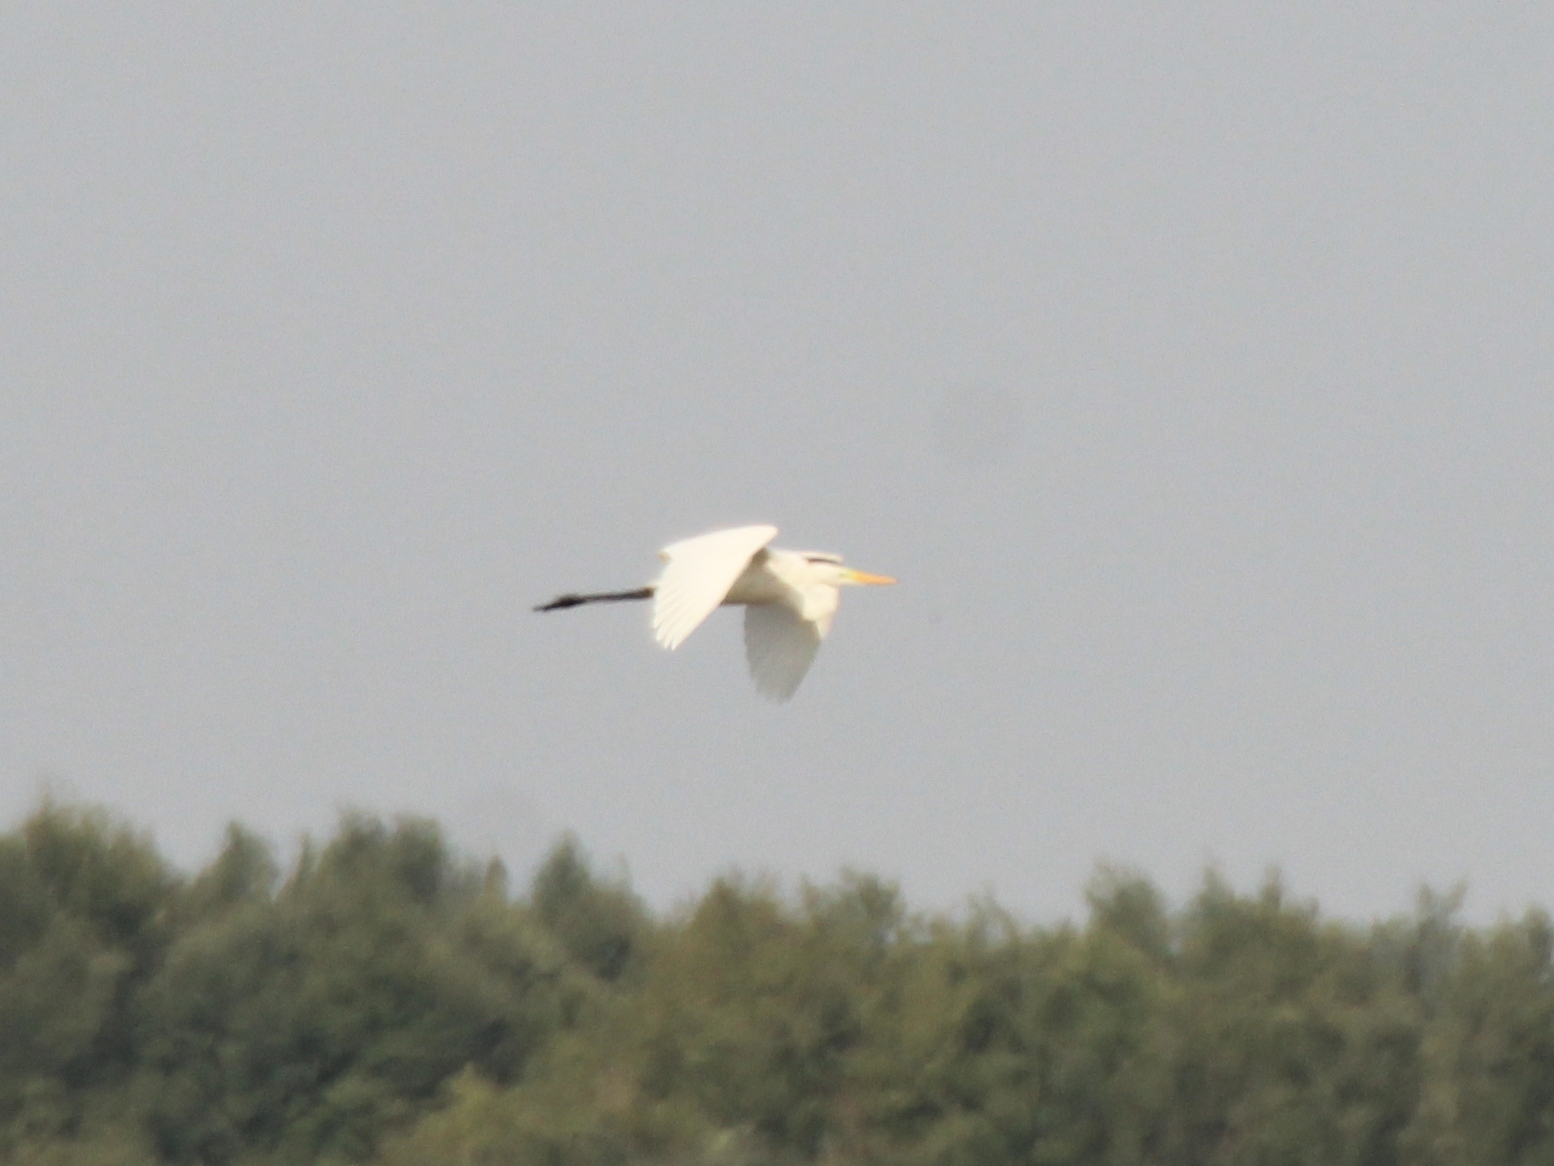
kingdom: Animalia
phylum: Chordata
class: Aves
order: Pelecaniformes
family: Ardeidae
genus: Ardea
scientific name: Ardea alba
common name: Great egret
